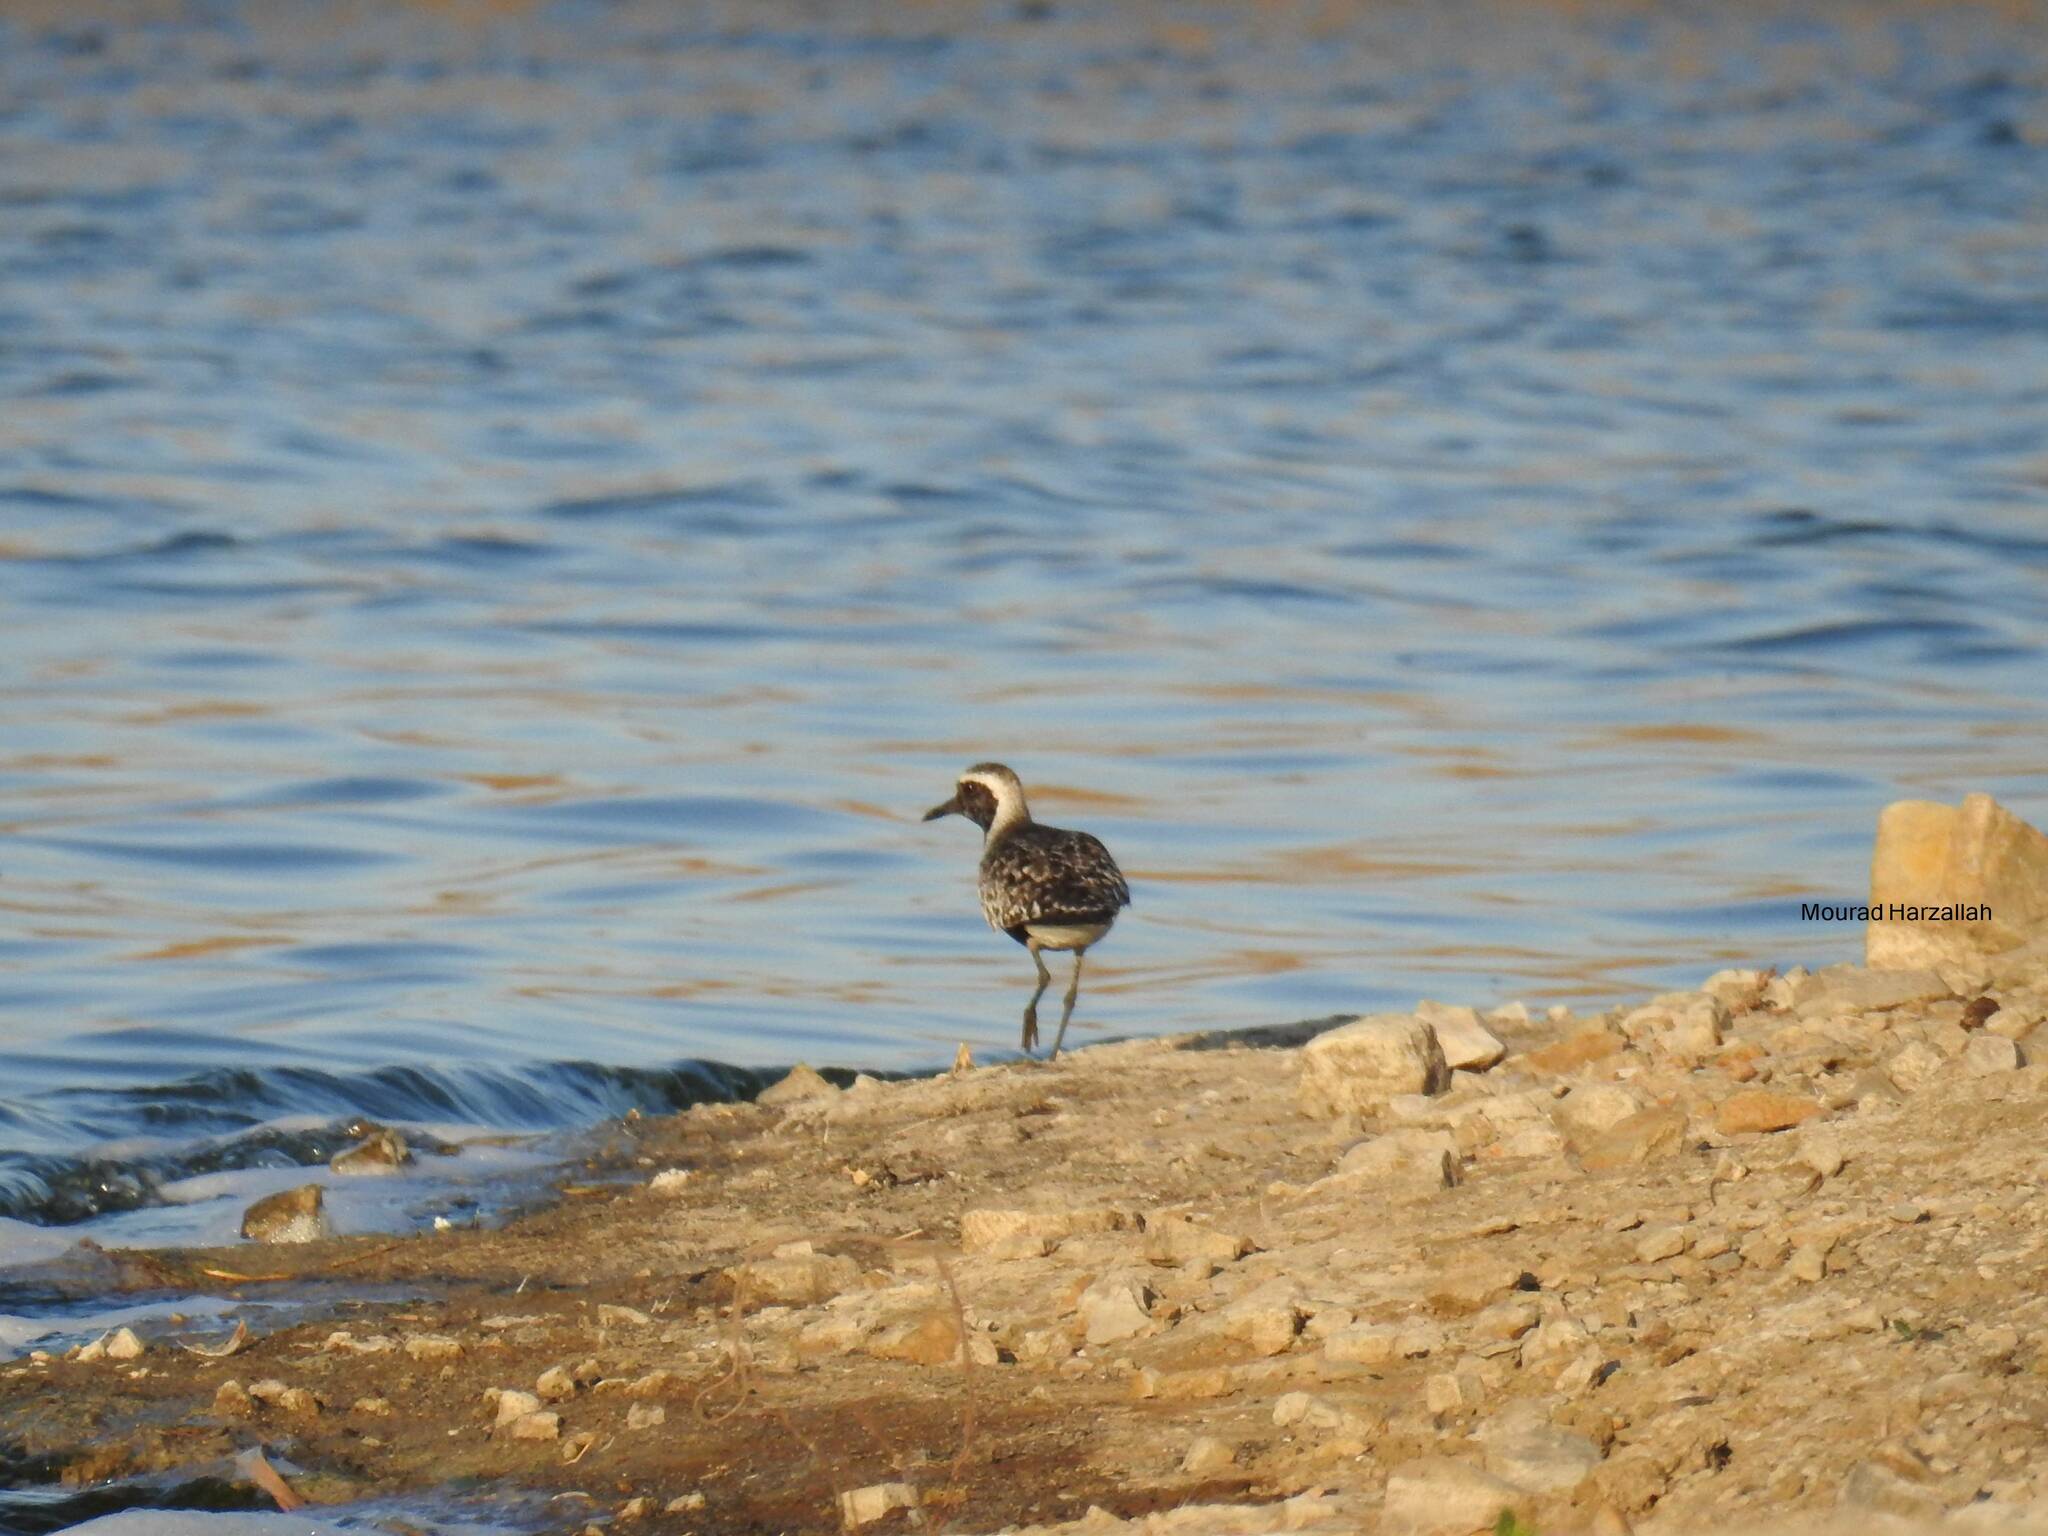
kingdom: Animalia
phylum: Chordata
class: Aves
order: Charadriiformes
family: Charadriidae
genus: Pluvialis
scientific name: Pluvialis squatarola
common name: Grey plover
